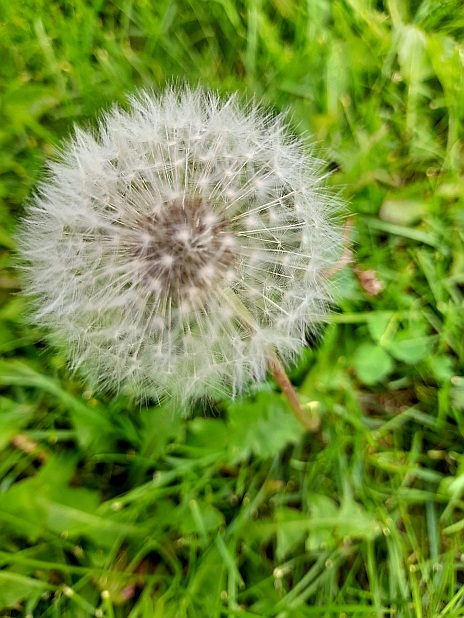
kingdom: Plantae
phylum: Tracheophyta
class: Magnoliopsida
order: Asterales
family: Asteraceae
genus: Taraxacum
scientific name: Taraxacum officinale
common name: Common dandelion
